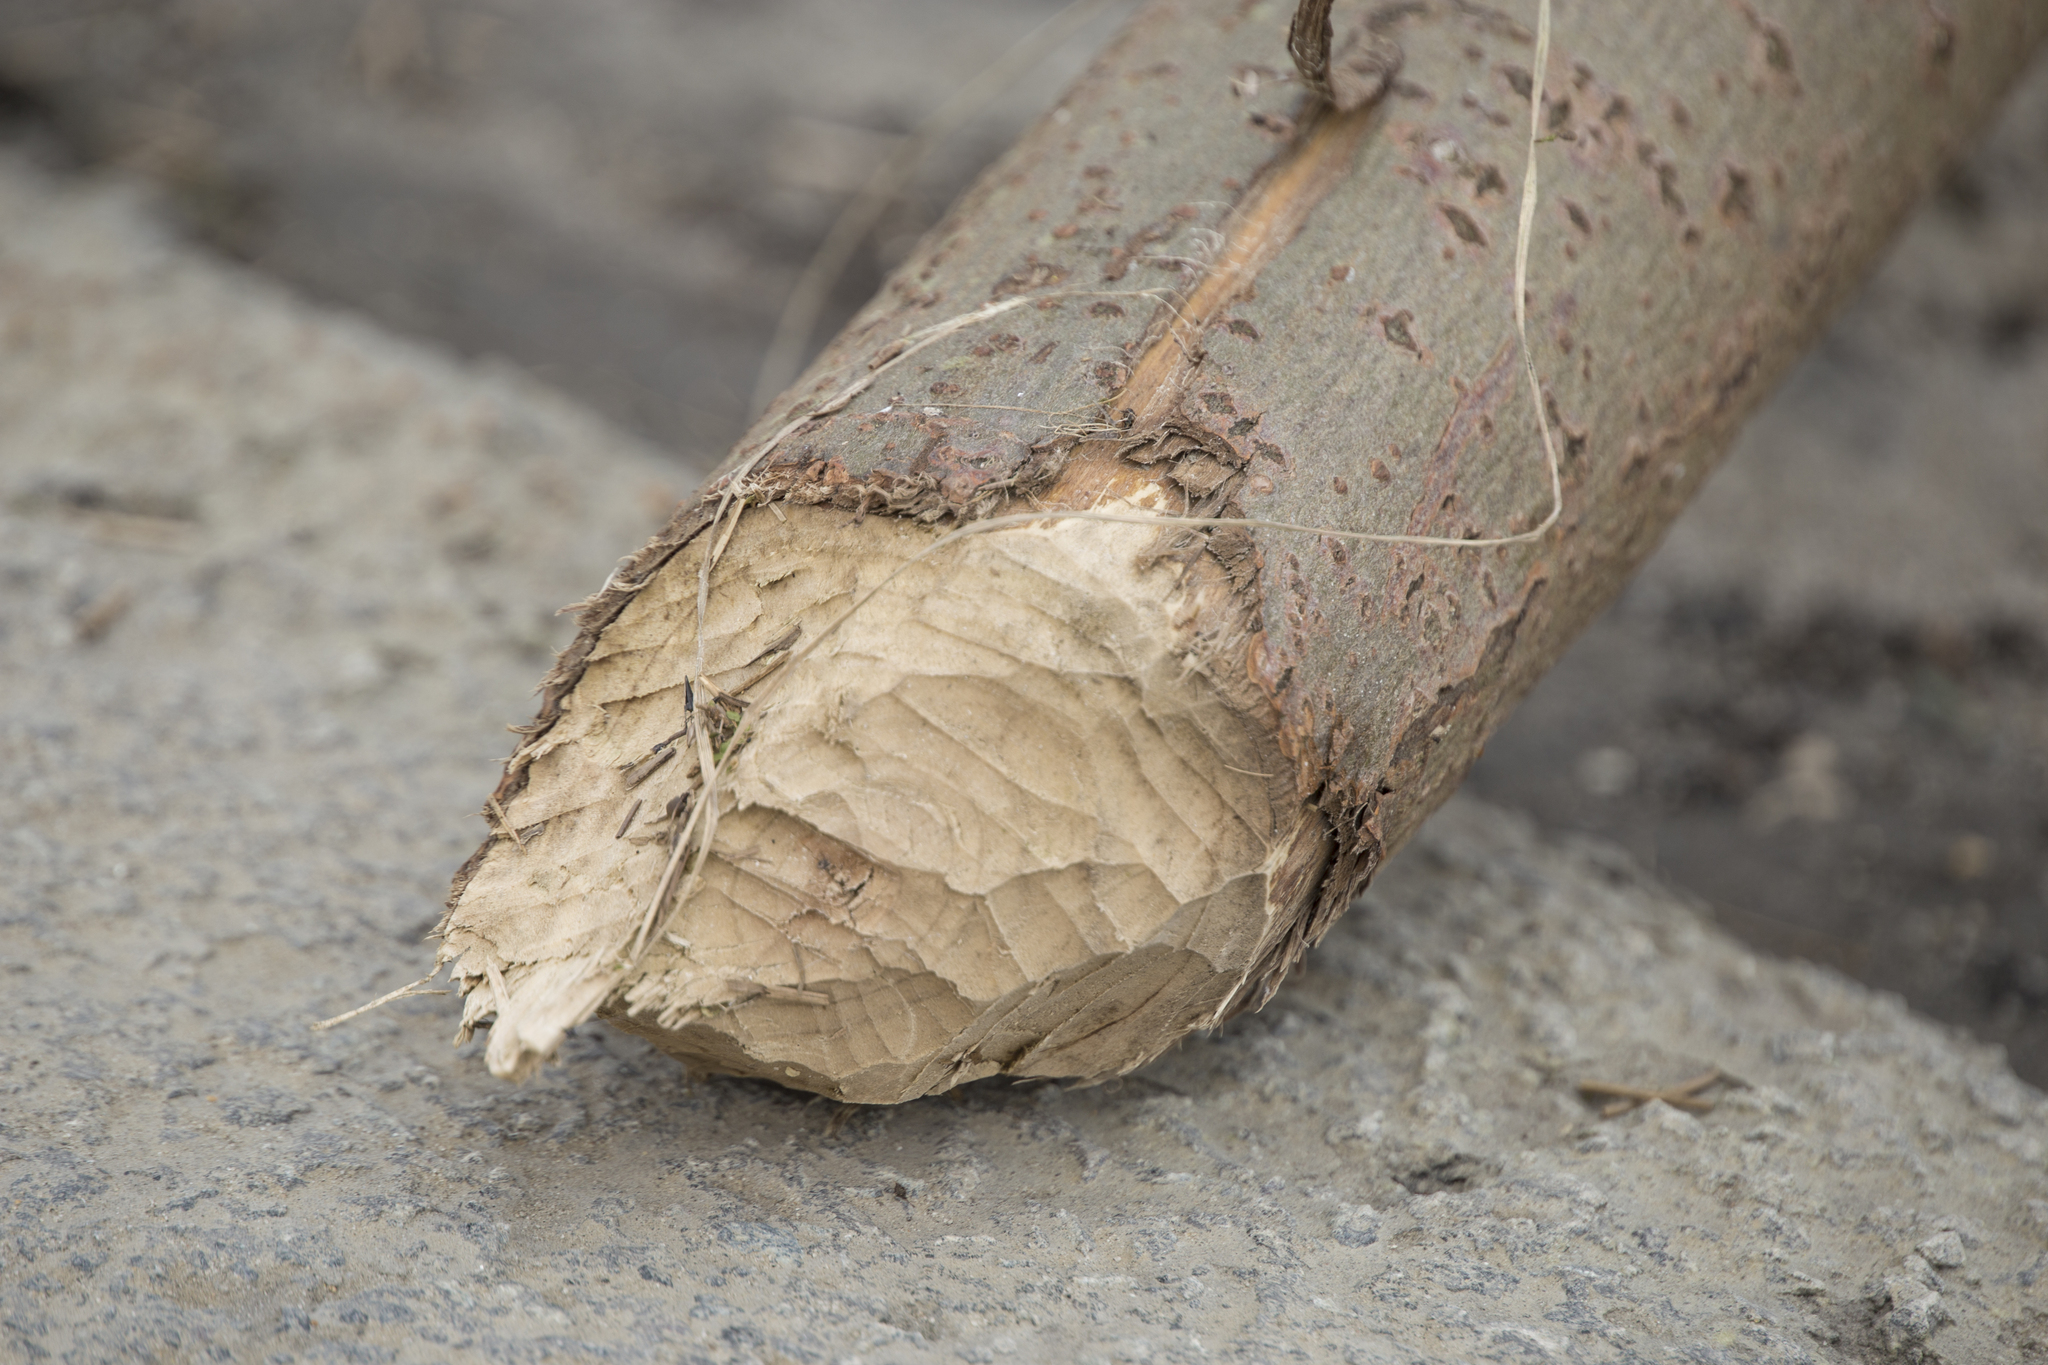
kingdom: Animalia
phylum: Chordata
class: Mammalia
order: Rodentia
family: Castoridae
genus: Castor
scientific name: Castor fiber
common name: Eurasian beaver
